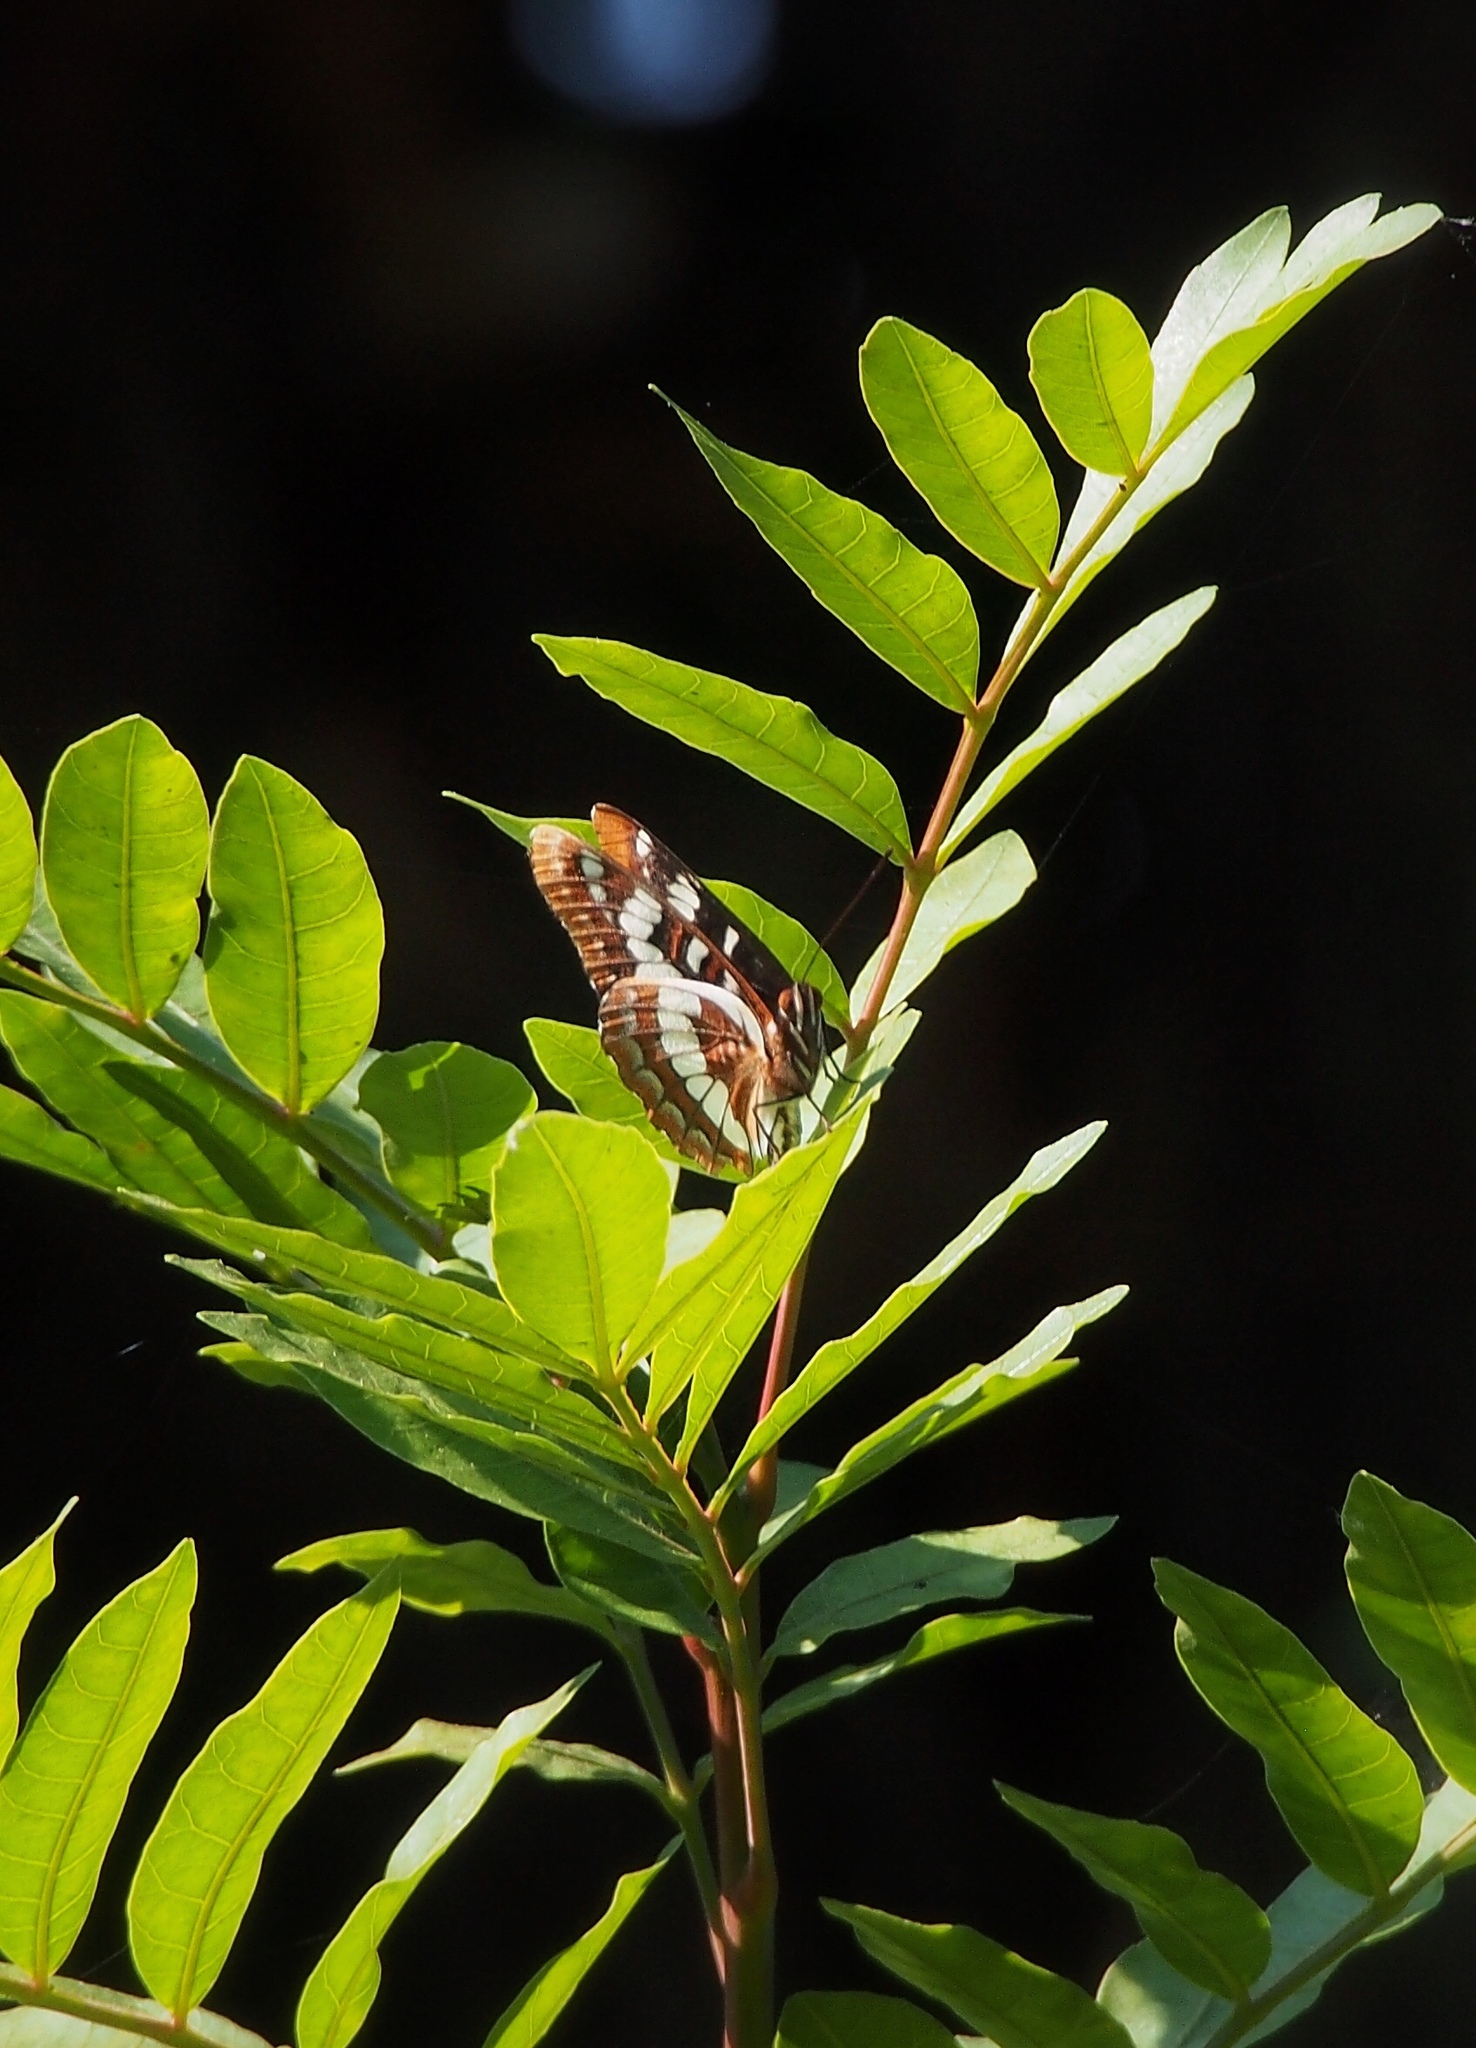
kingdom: Animalia
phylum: Arthropoda
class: Insecta
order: Lepidoptera
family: Nymphalidae
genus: Limenitis
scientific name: Limenitis lorquini
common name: Lorquin's admiral
